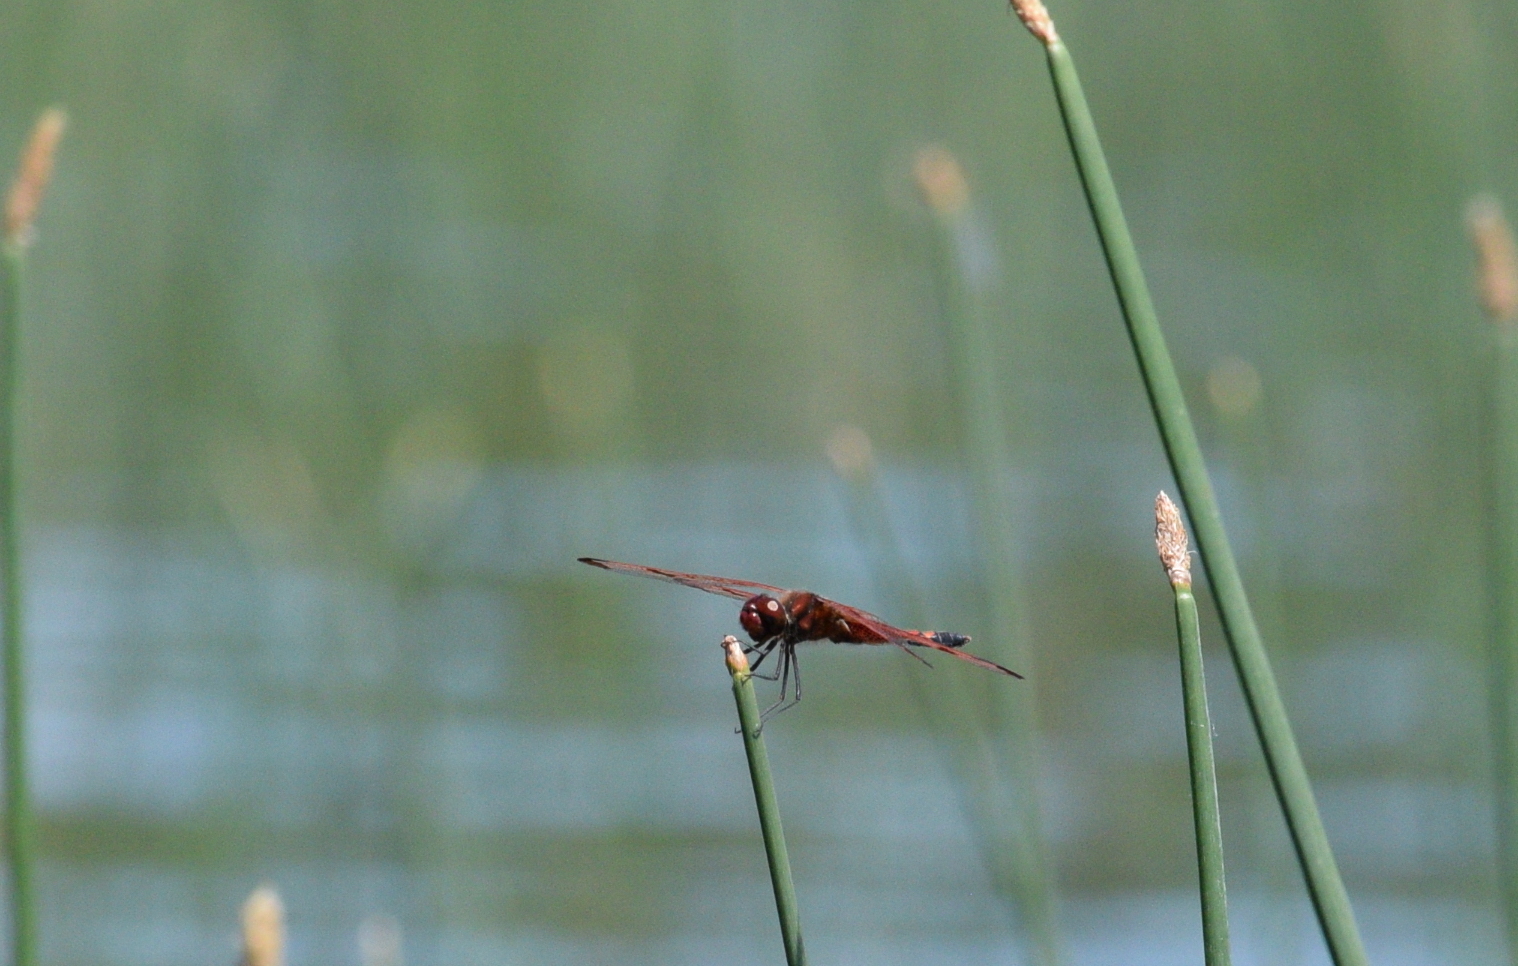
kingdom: Animalia
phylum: Arthropoda
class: Insecta
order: Odonata
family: Libellulidae
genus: Celithemis
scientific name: Celithemis elisa
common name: Calico pennant
